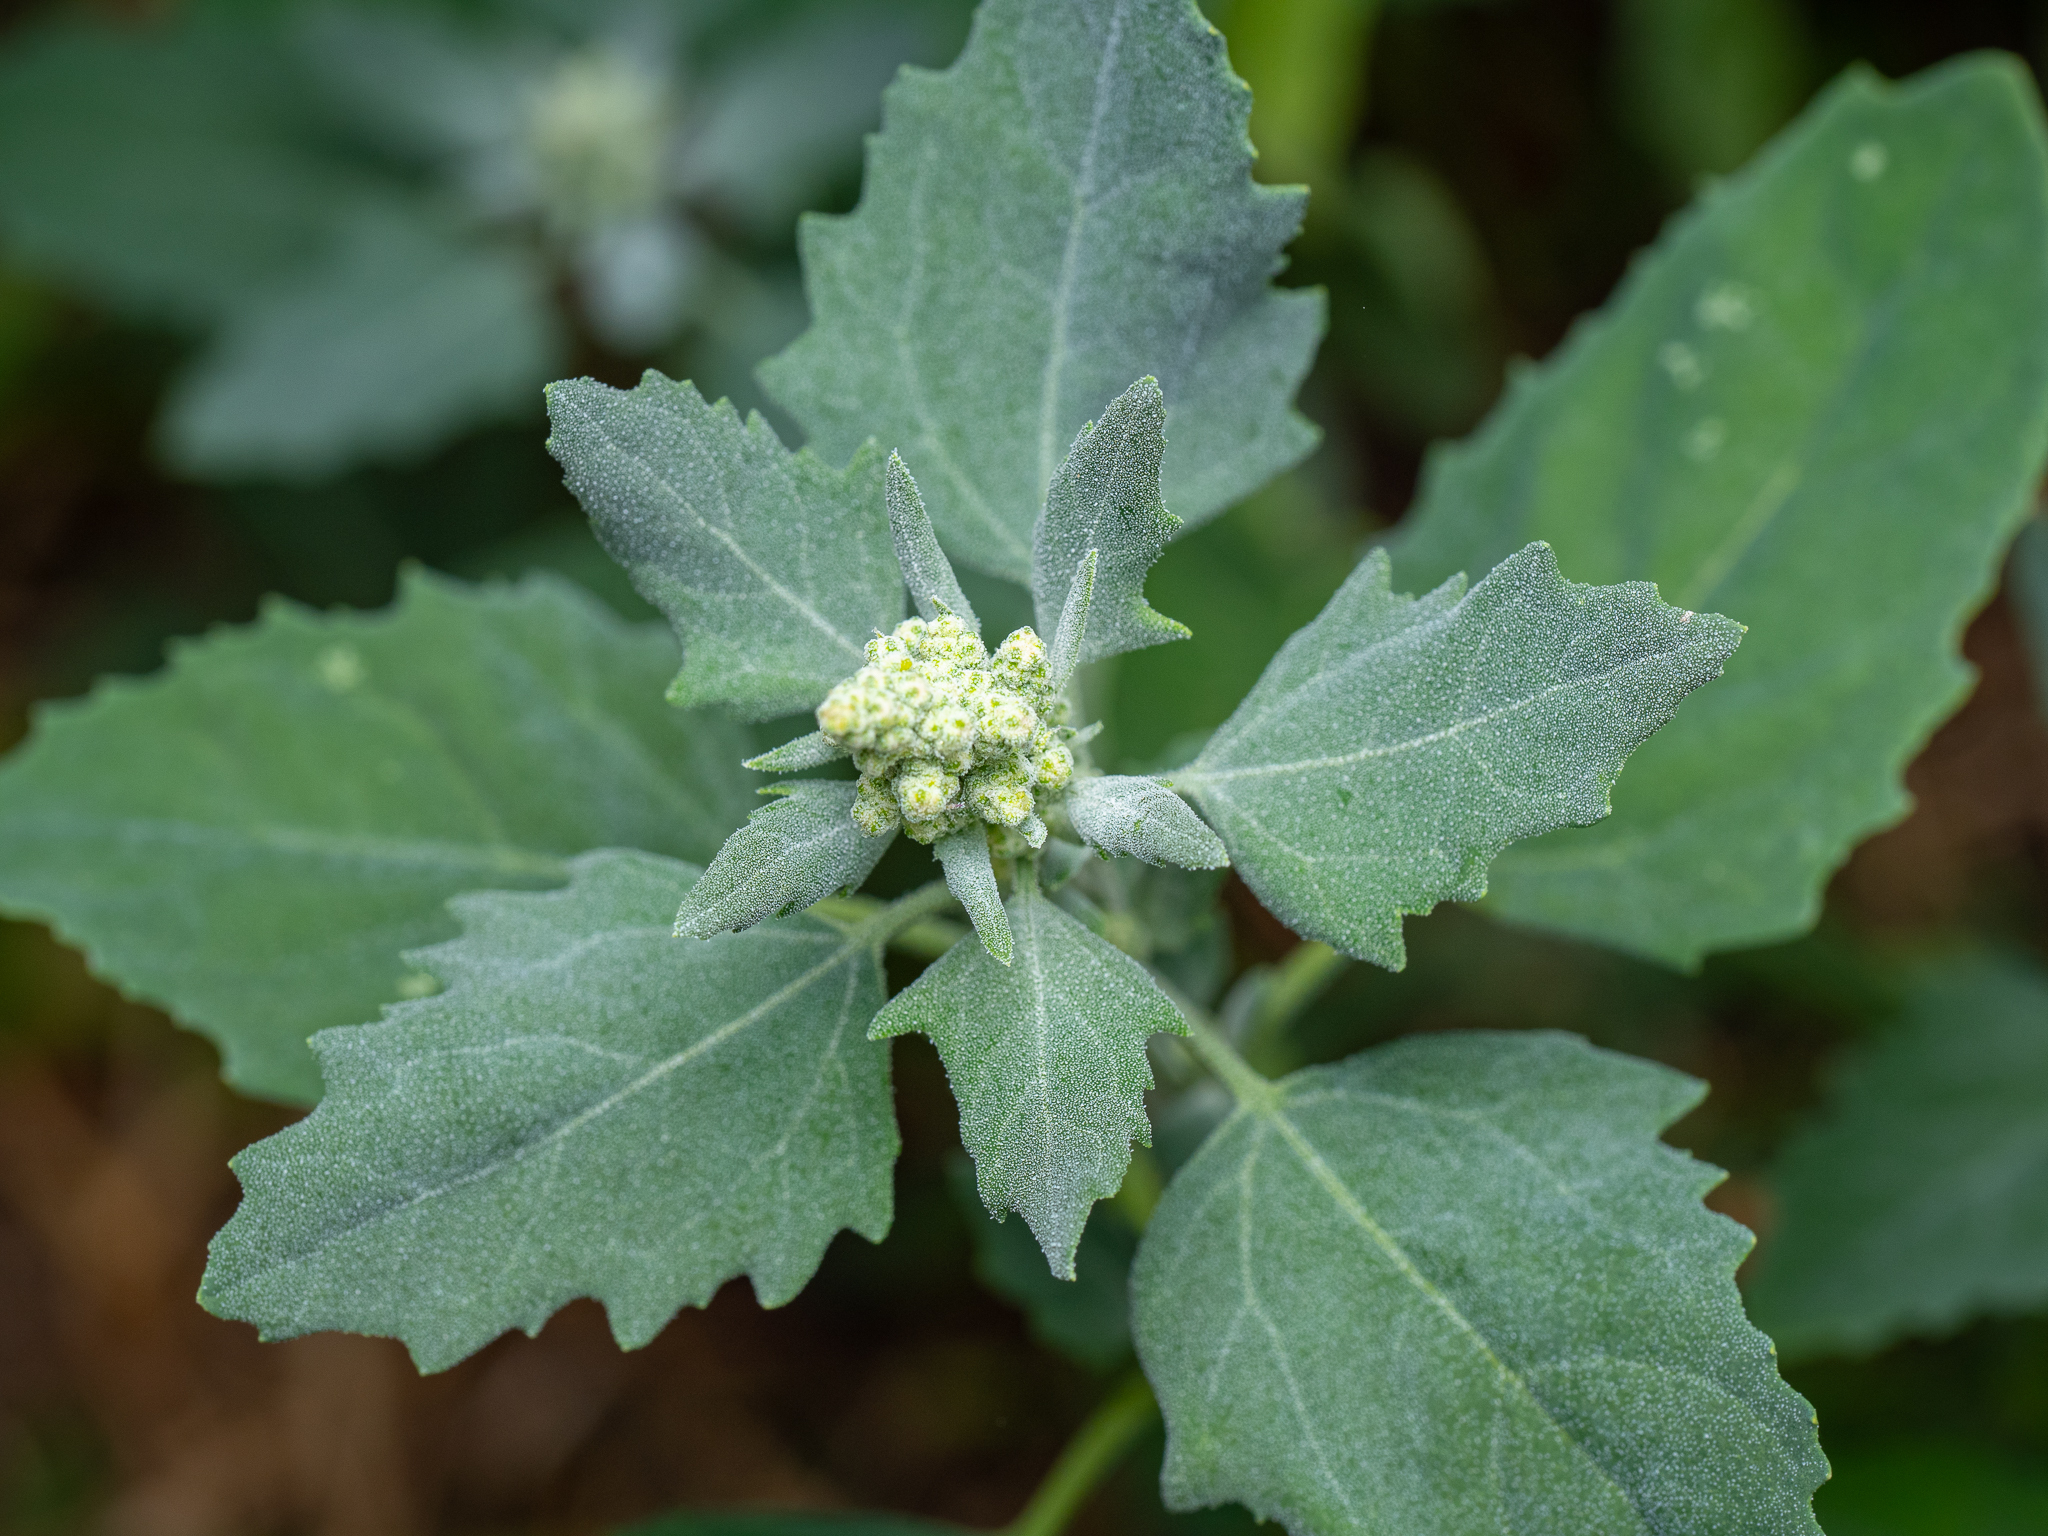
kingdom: Plantae
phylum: Tracheophyta
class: Magnoliopsida
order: Caryophyllales
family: Amaranthaceae
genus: Chenopodium
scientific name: Chenopodium album
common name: Fat-hen
